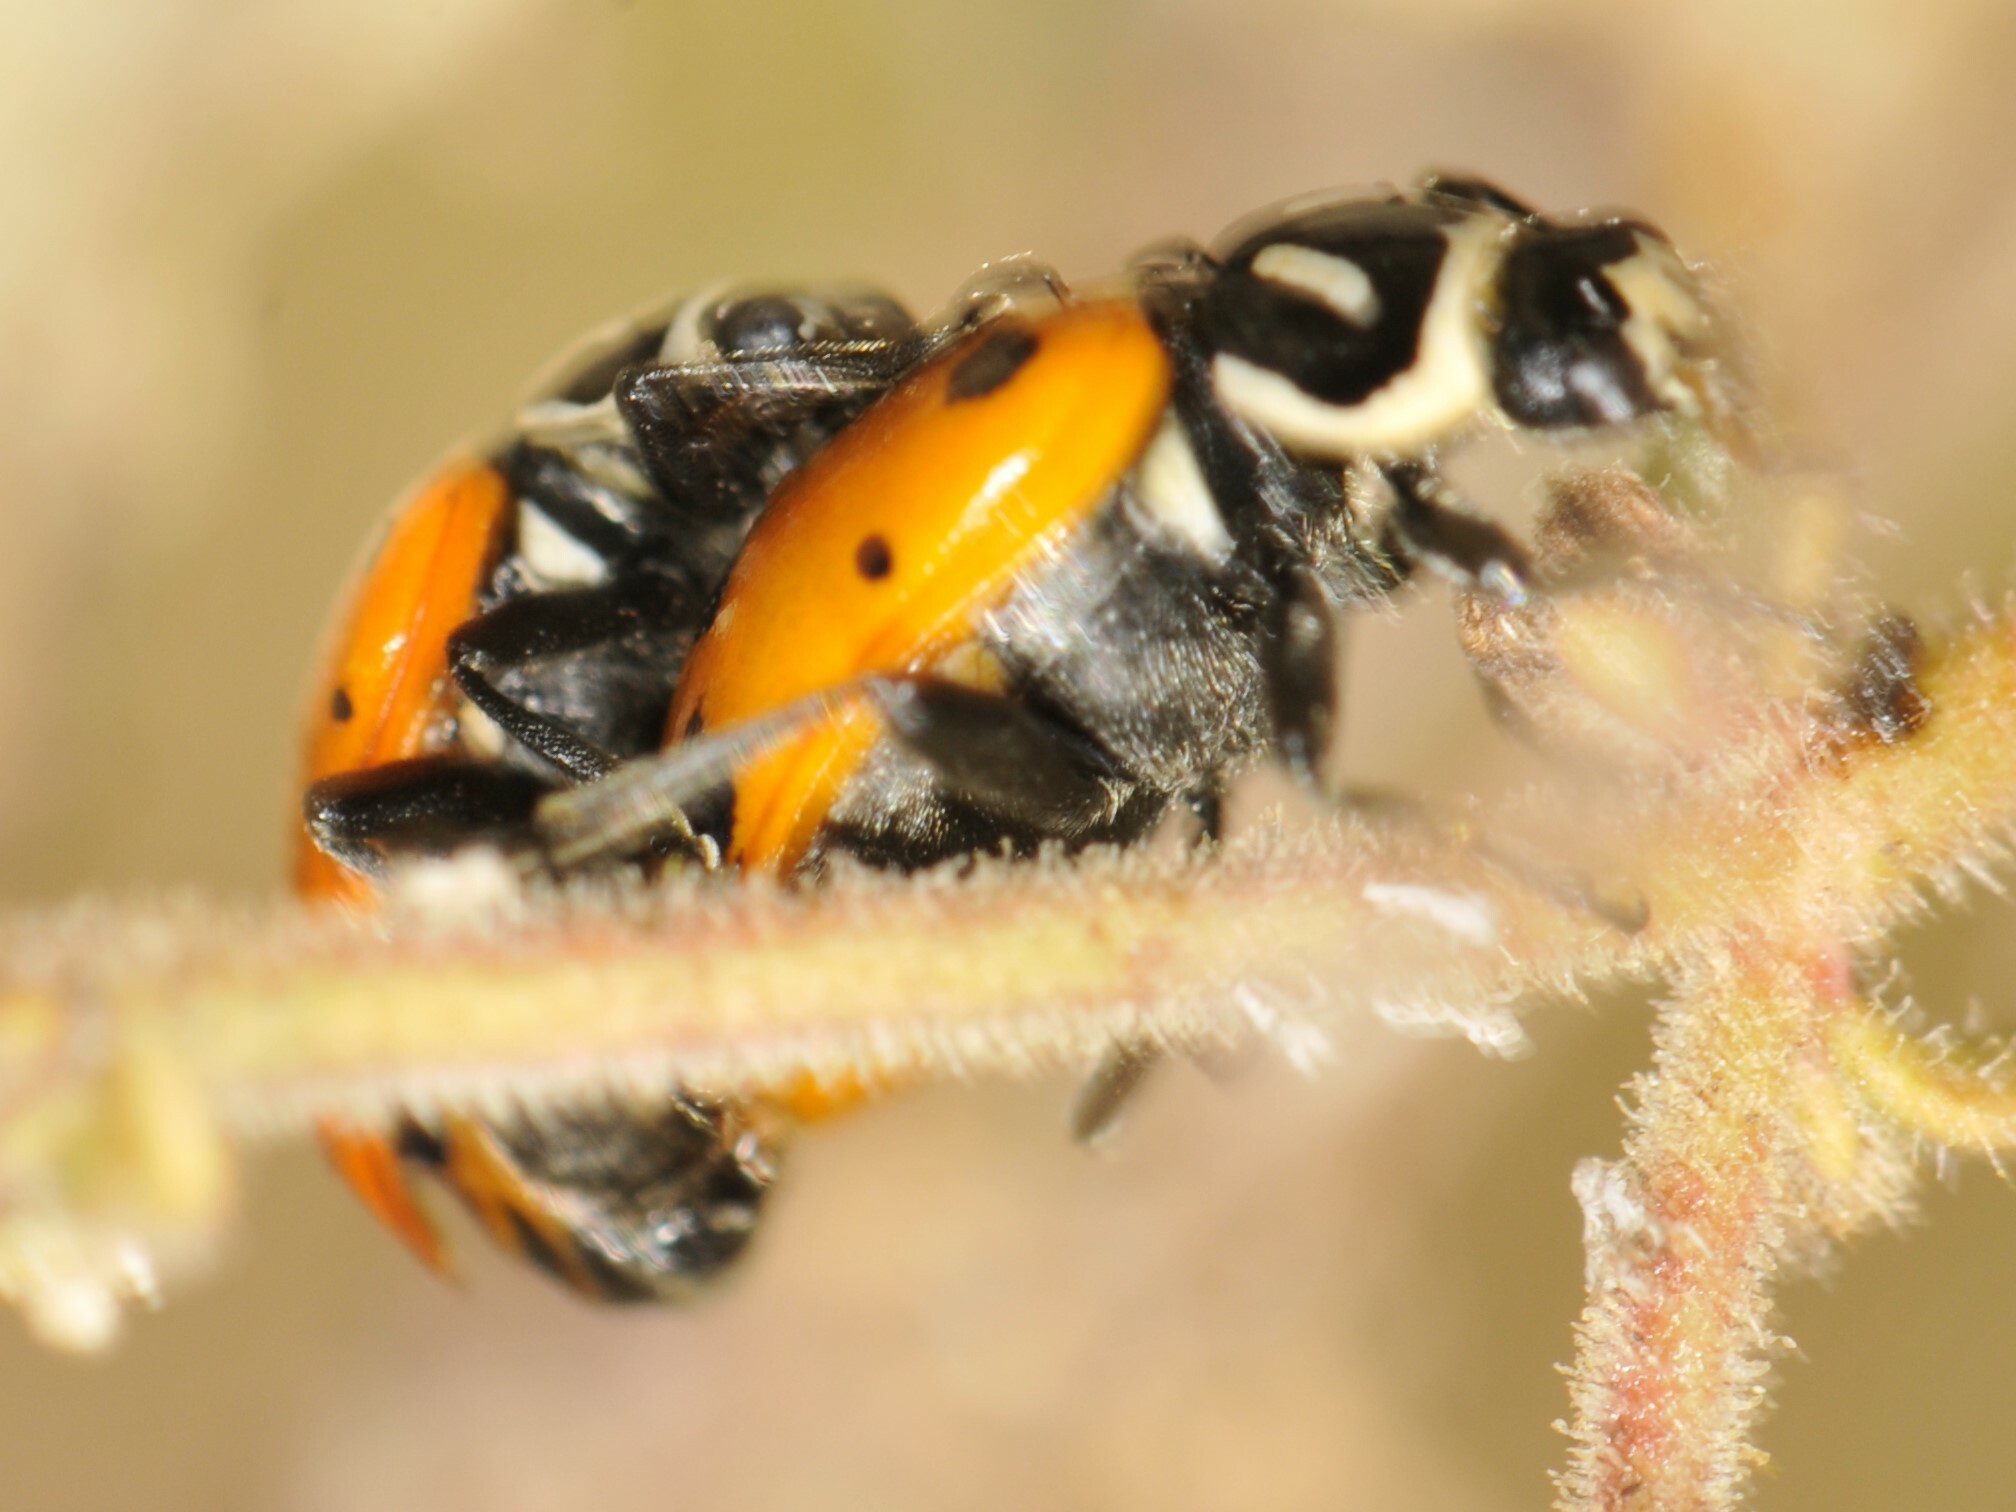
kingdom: Animalia
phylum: Arthropoda
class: Insecta
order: Coleoptera
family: Coccinellidae
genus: Hippodamia
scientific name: Hippodamia convergens
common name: Convergent lady beetle
